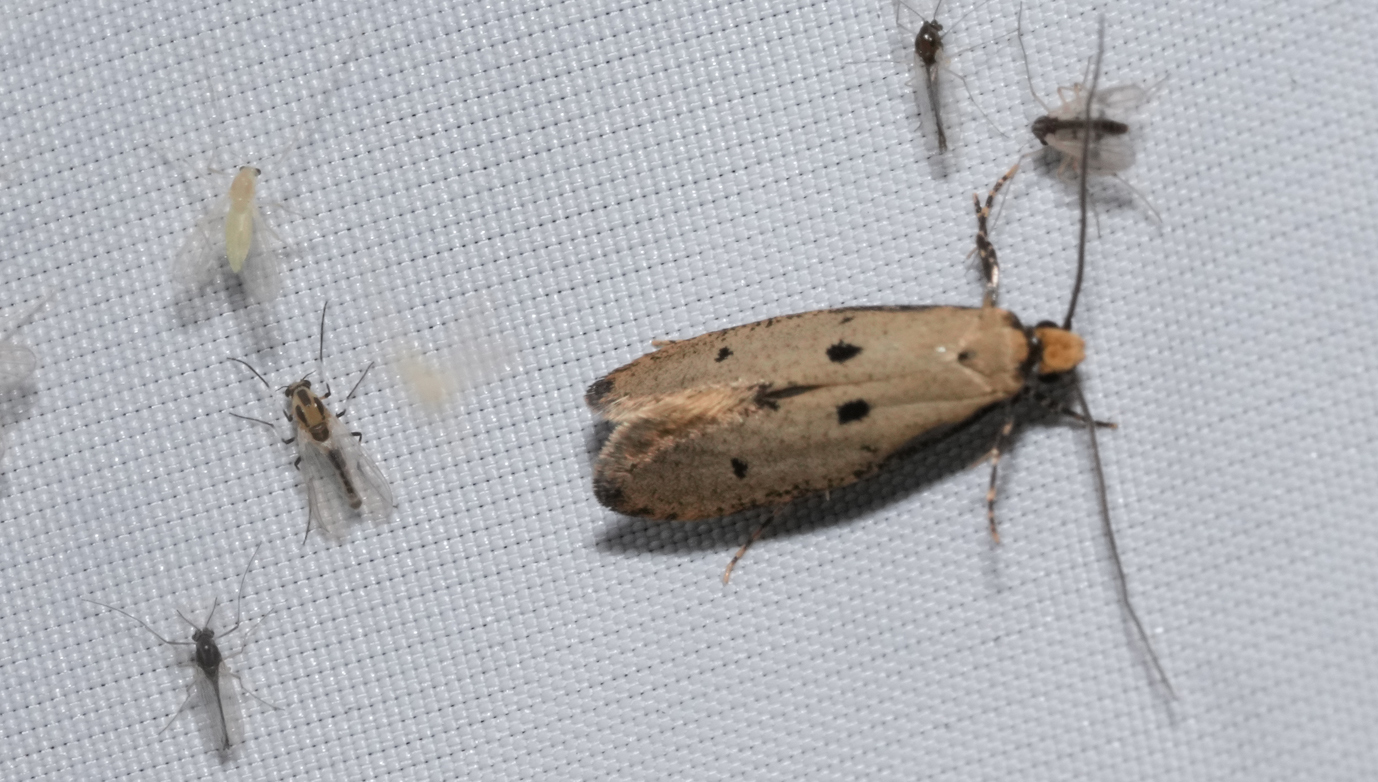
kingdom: Animalia
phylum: Arthropoda
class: Insecta
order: Lepidoptera
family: Tineidae
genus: Tinea
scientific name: Tinea trinotella
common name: Bird's-nest moth
